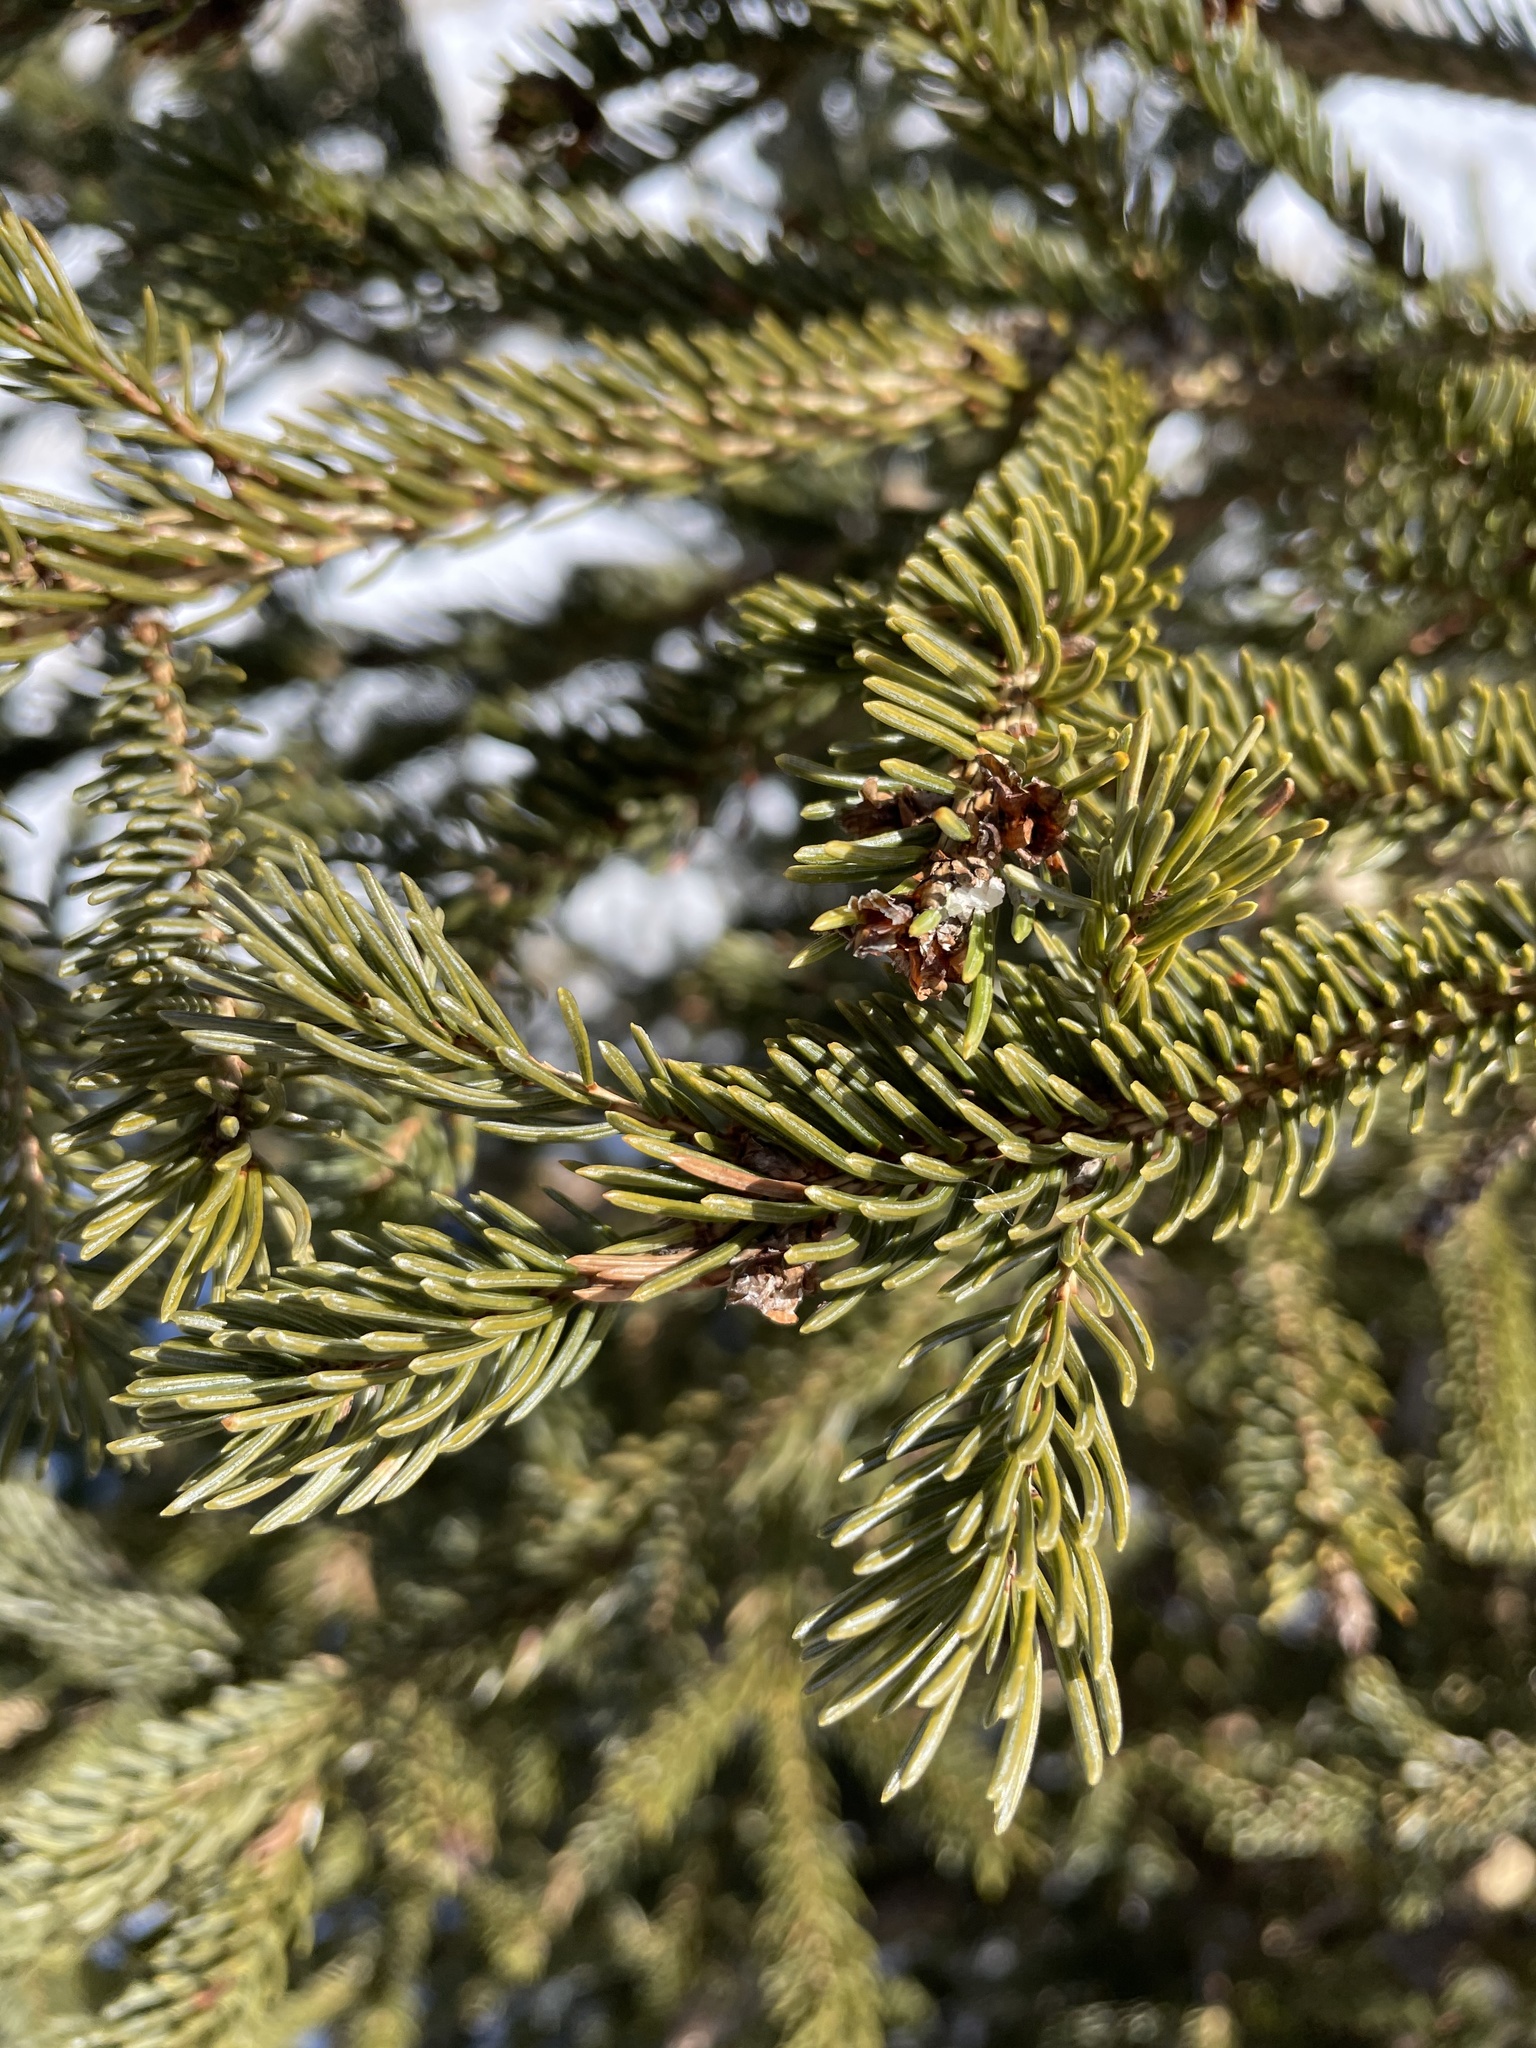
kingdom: Plantae
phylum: Tracheophyta
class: Pinopsida
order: Pinales
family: Pinaceae
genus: Picea
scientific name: Picea glauca
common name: White spruce
